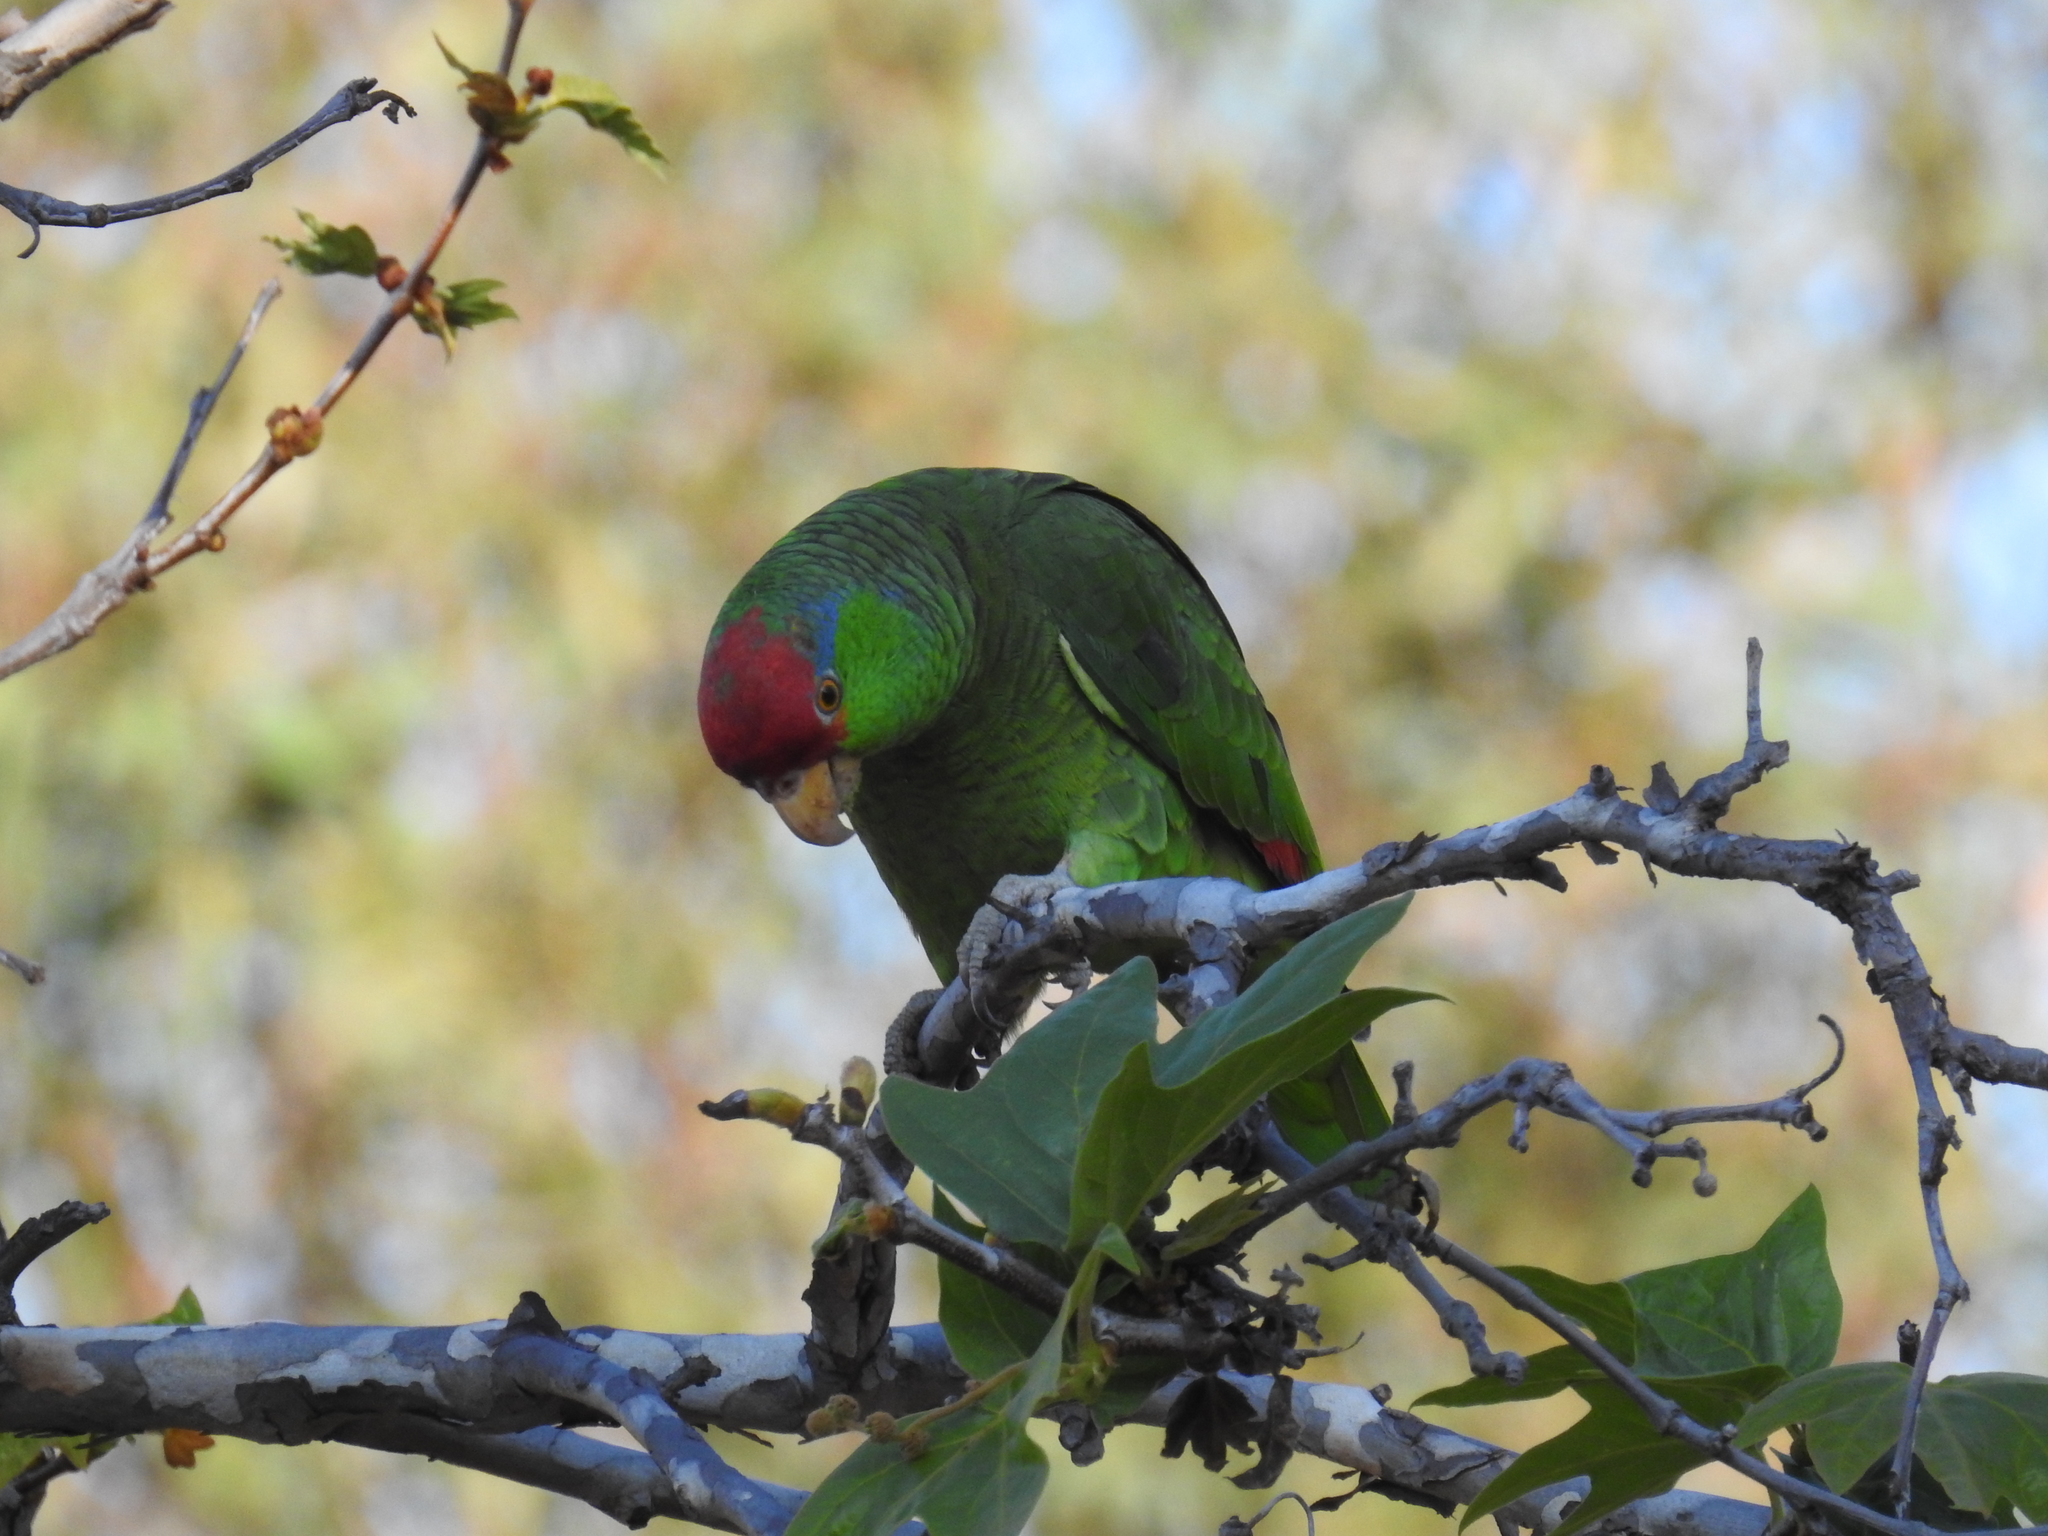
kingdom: Animalia
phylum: Chordata
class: Aves
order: Psittaciformes
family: Psittacidae
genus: Amazona
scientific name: Amazona viridigenalis
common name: Red-crowned amazon
